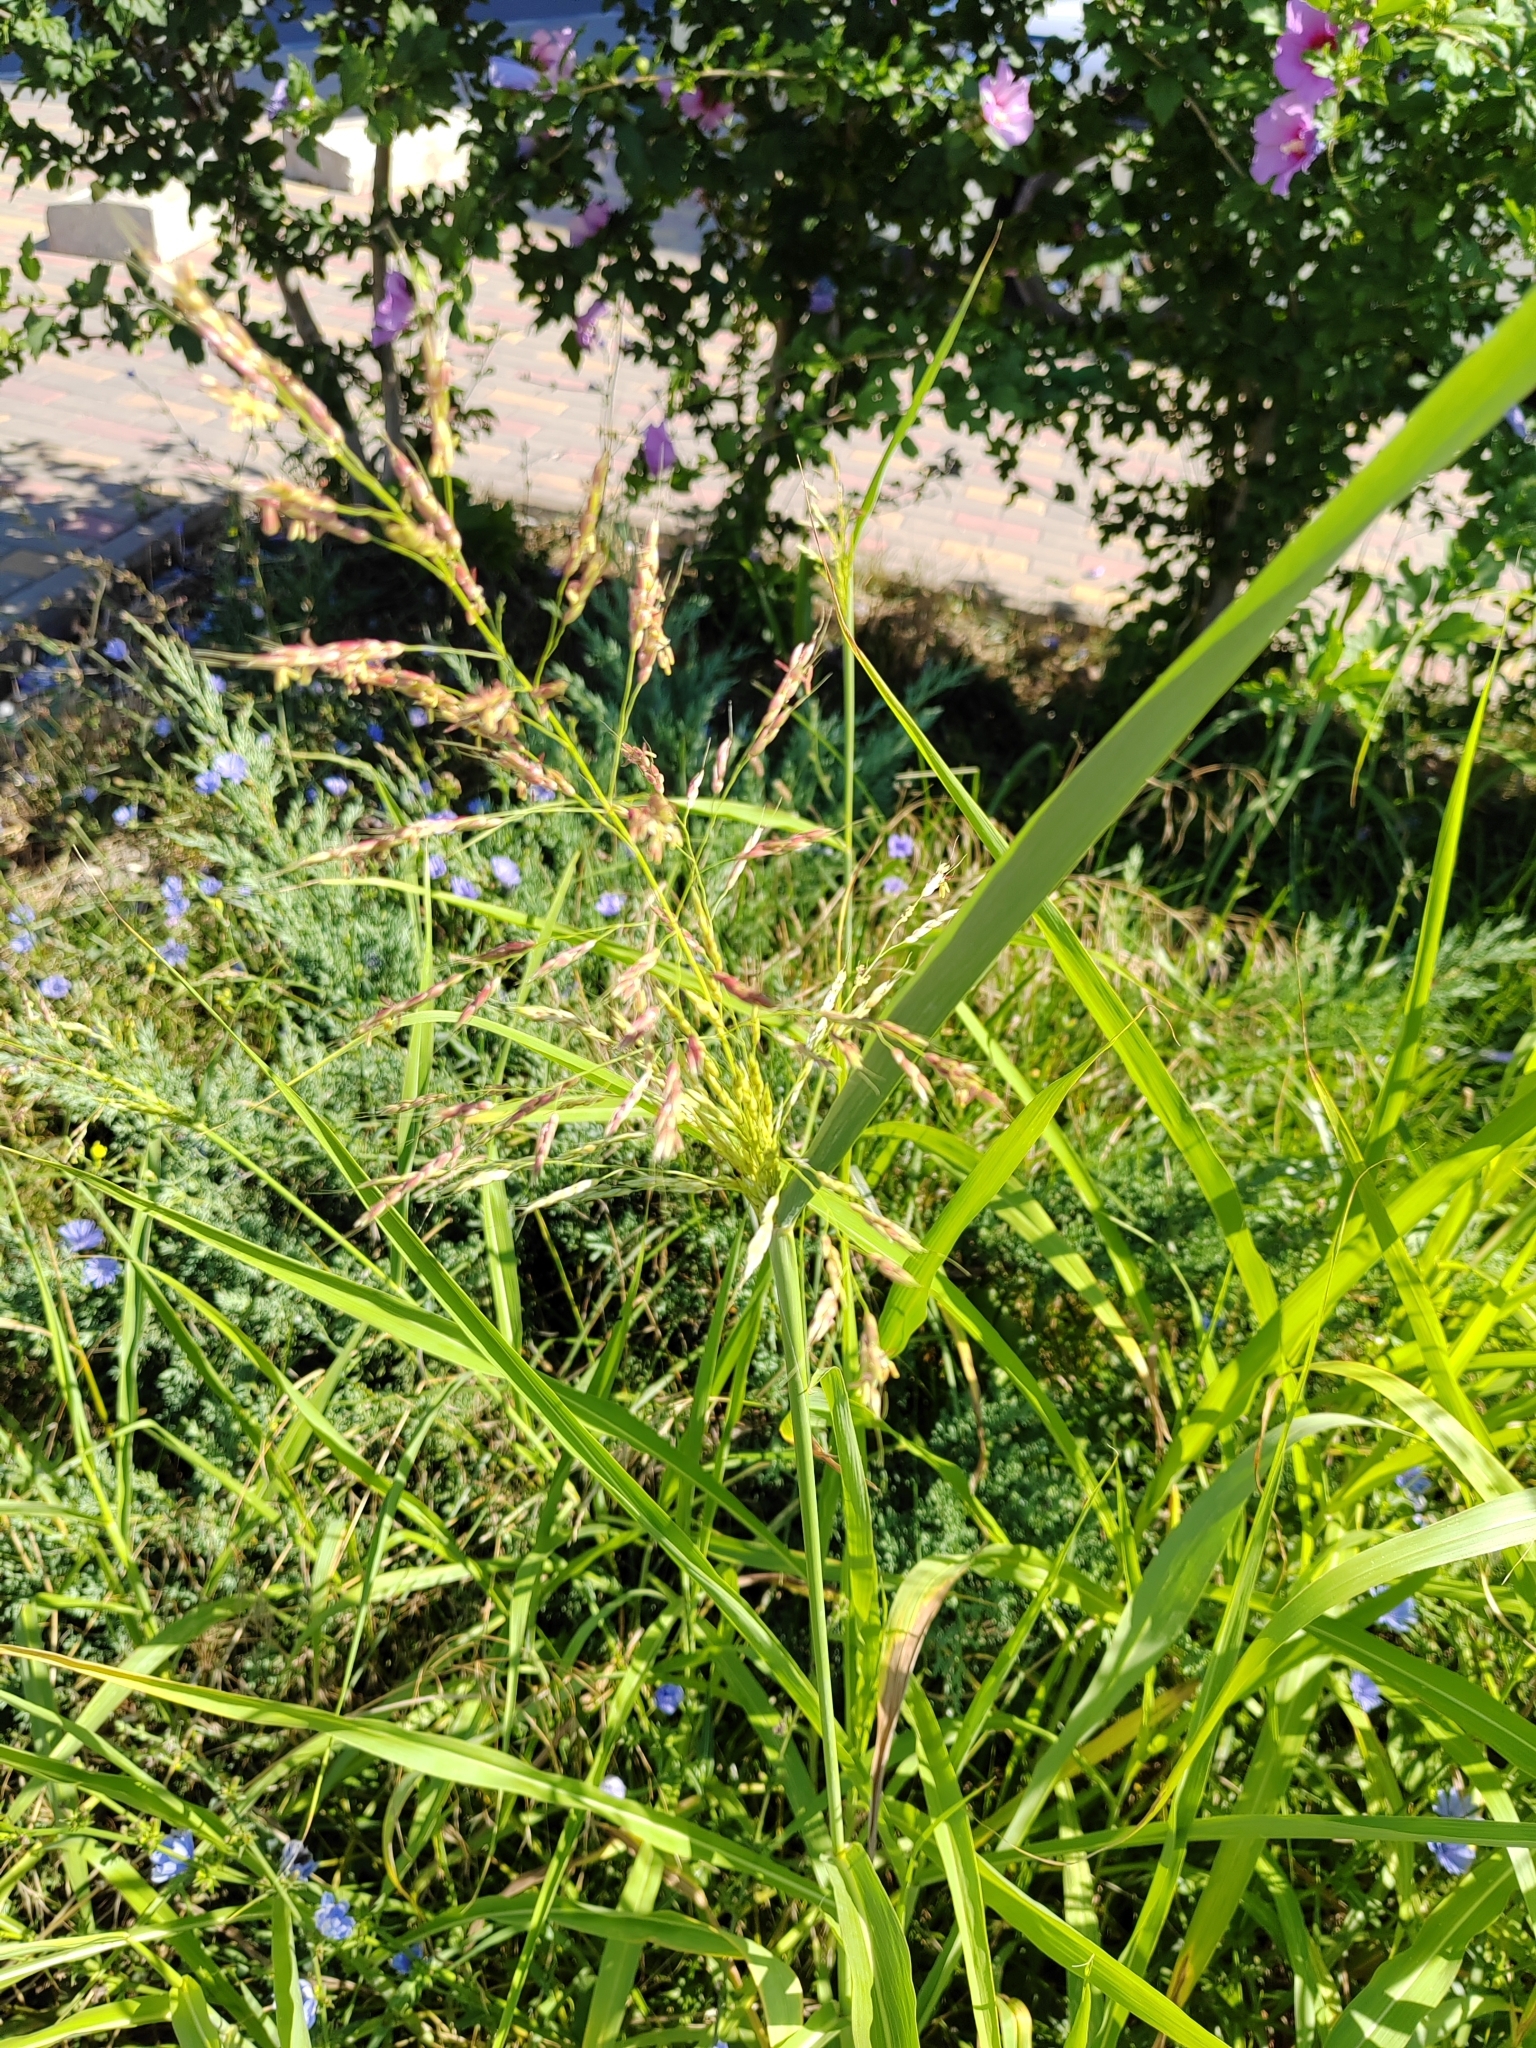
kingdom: Plantae
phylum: Tracheophyta
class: Liliopsida
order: Poales
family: Poaceae
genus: Sorghum
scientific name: Sorghum halepense
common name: Johnson-grass
